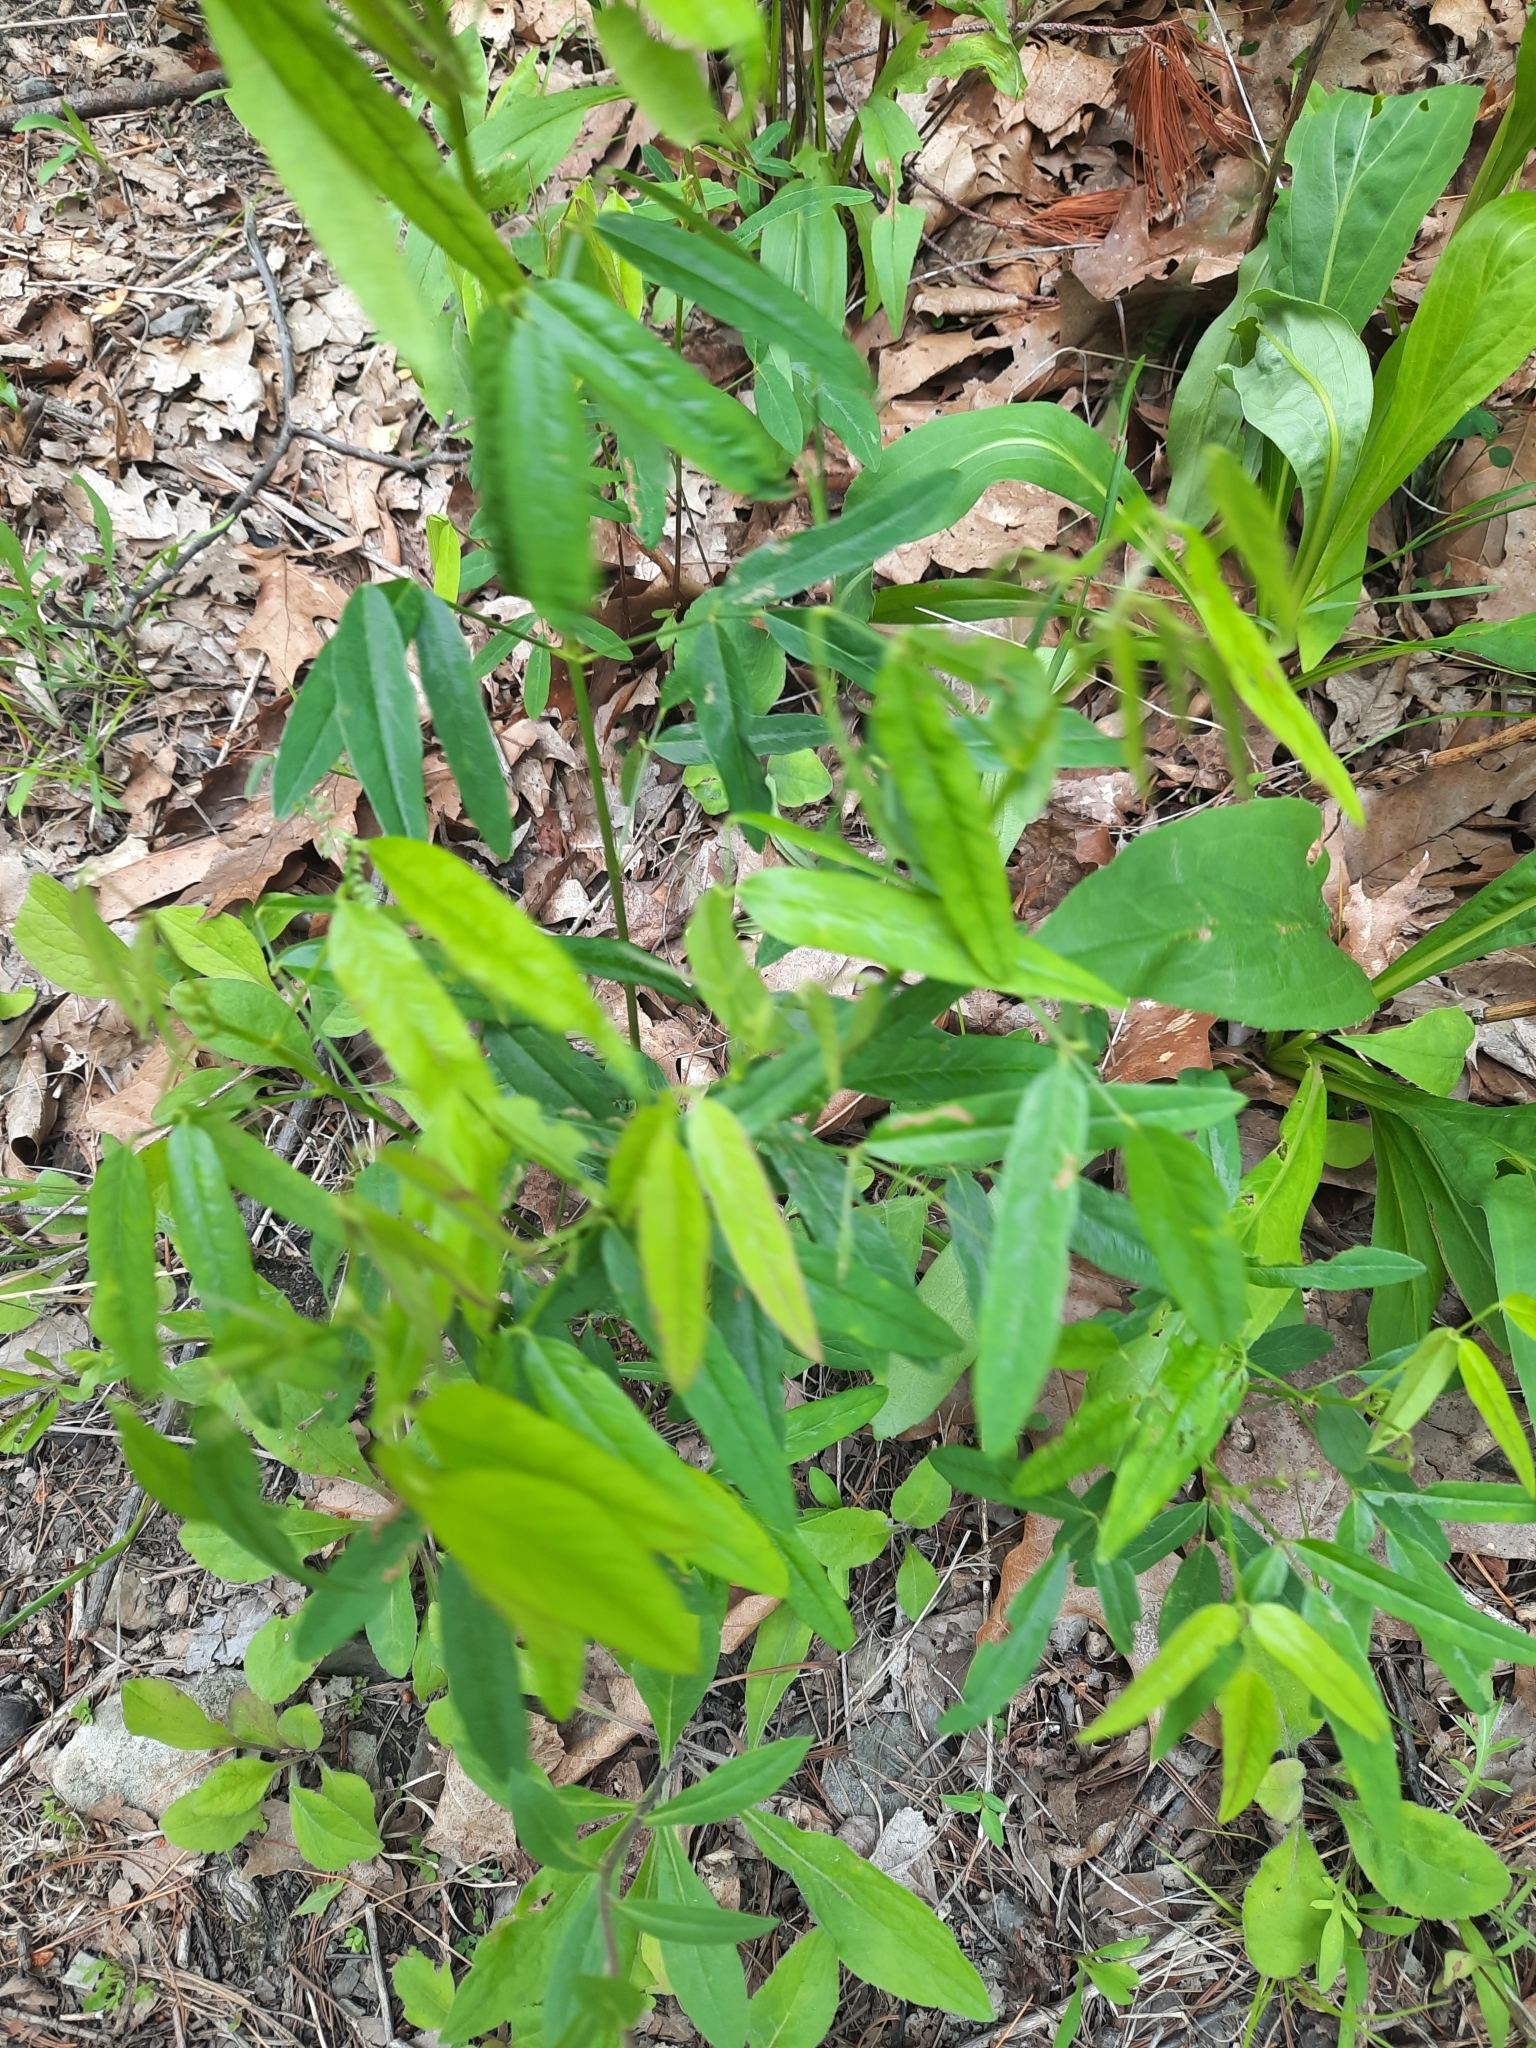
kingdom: Plantae
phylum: Tracheophyta
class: Magnoliopsida
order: Fabales
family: Fabaceae
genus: Desmodium
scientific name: Desmodium paniculatum
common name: Panicled tick-clover
